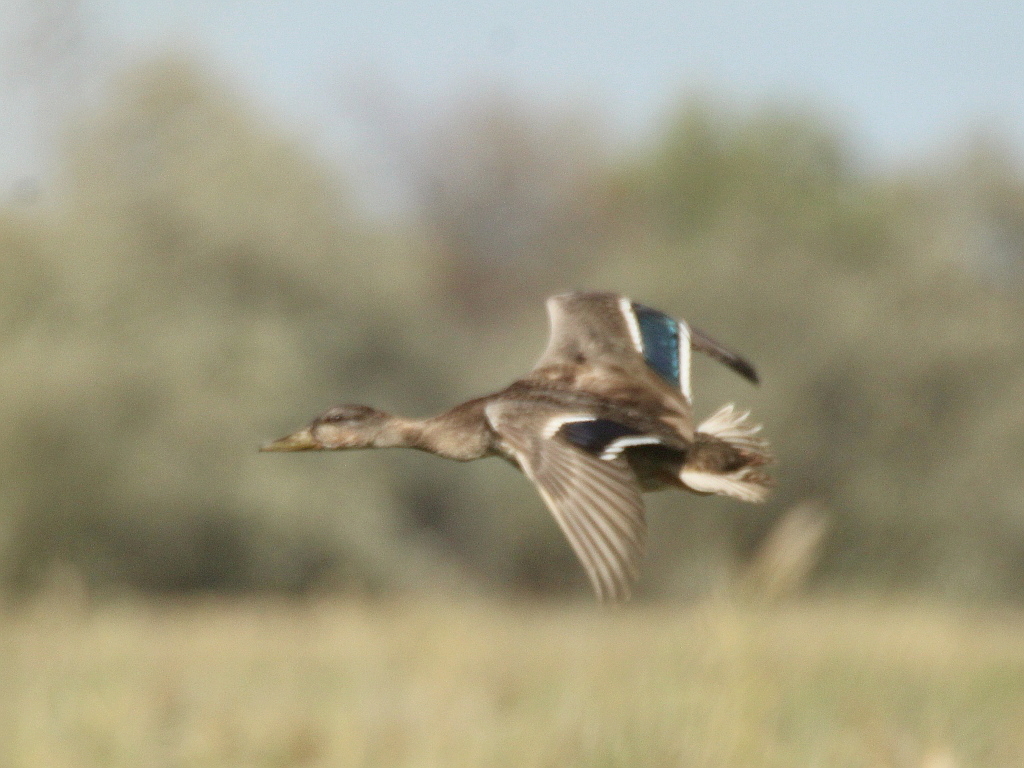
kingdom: Animalia
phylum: Chordata
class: Aves
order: Anseriformes
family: Anatidae
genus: Anas
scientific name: Anas platyrhynchos
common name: Mallard
